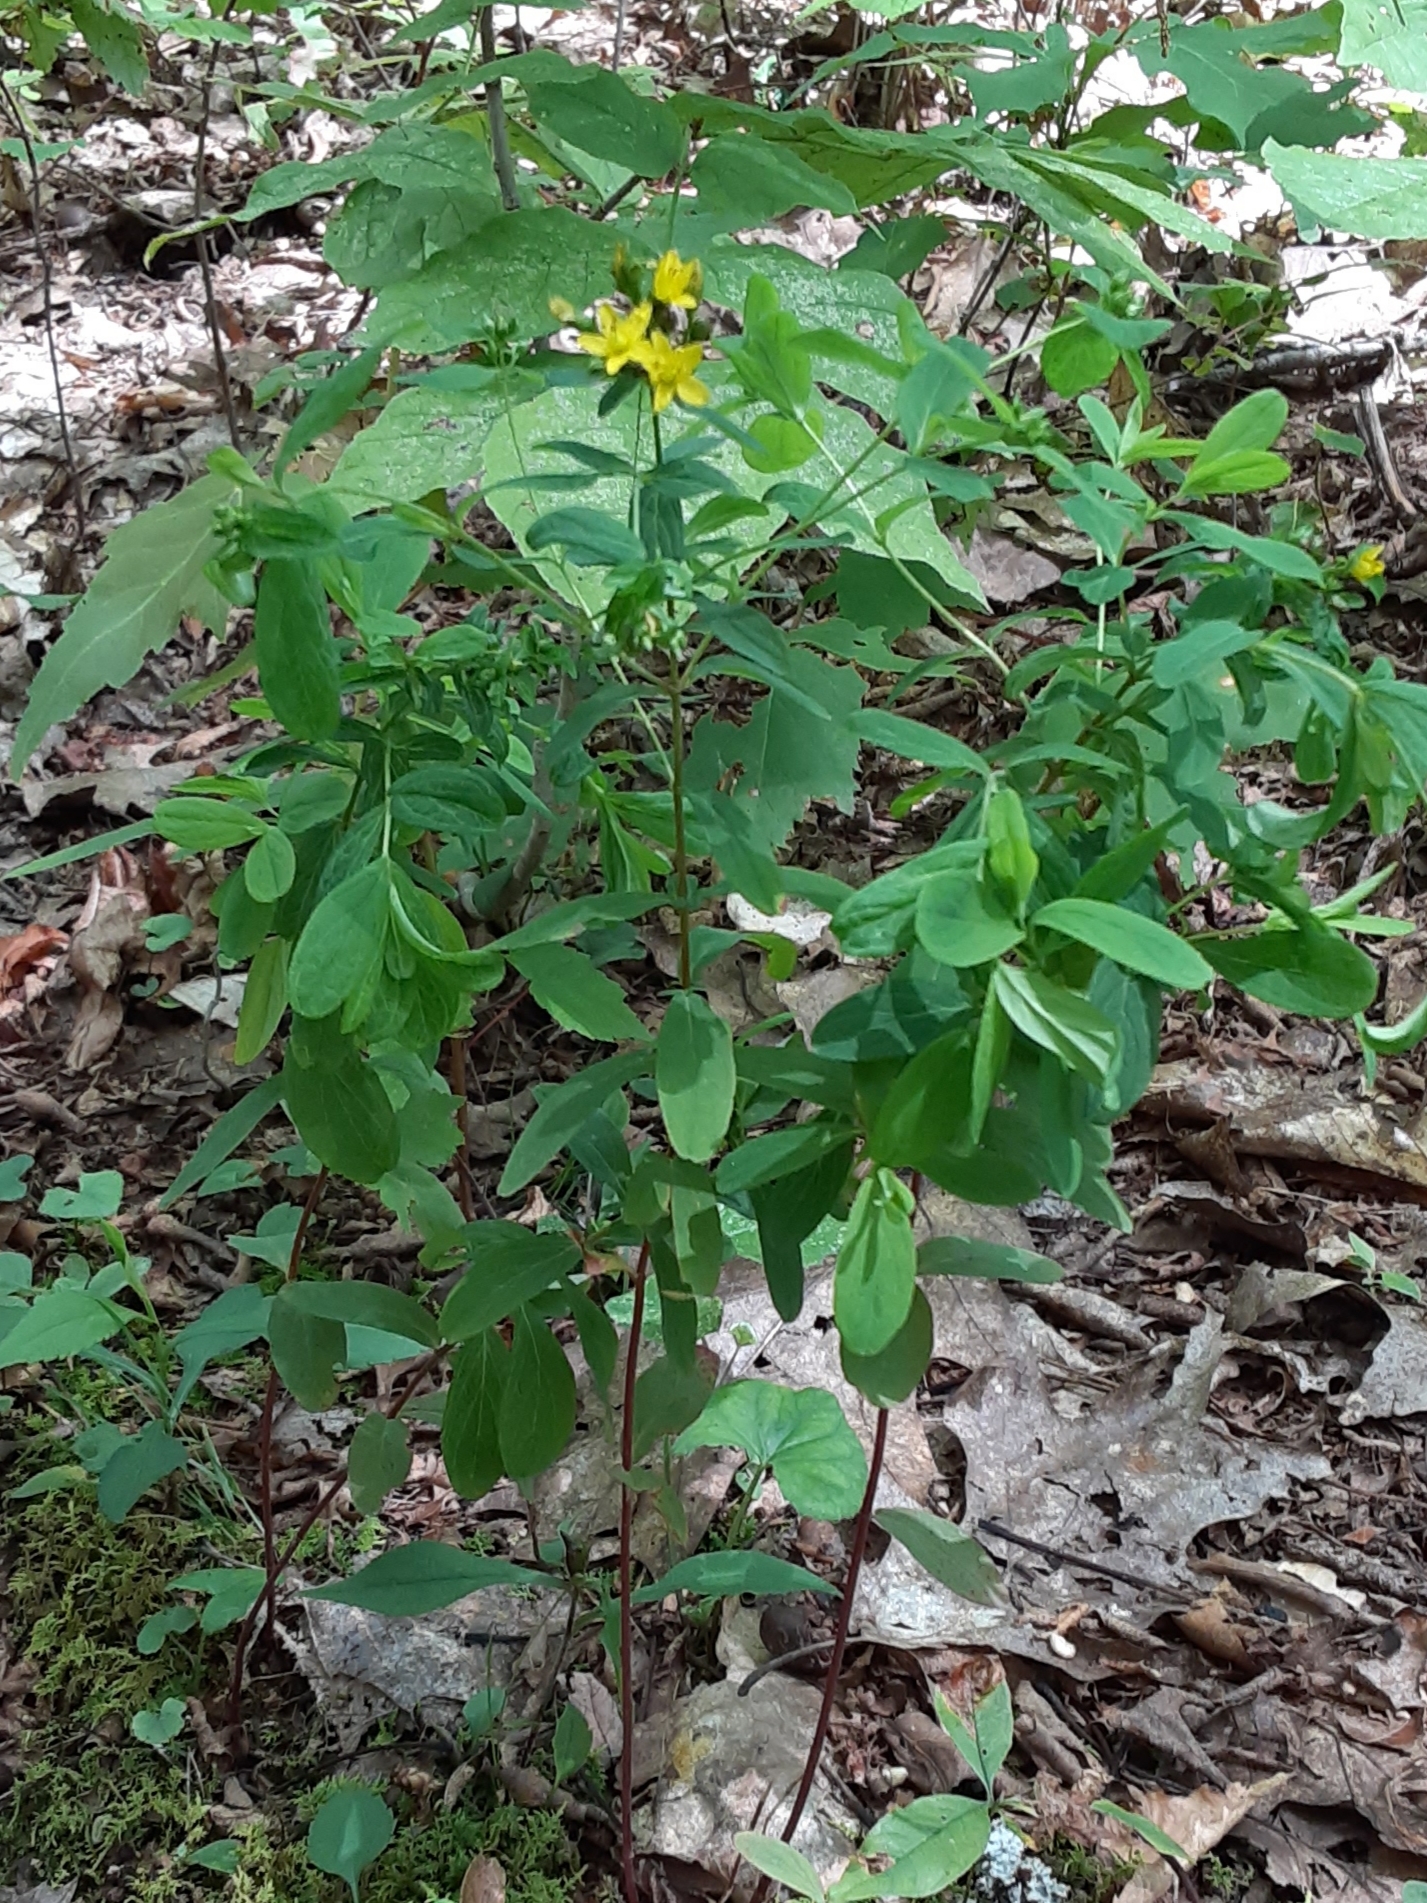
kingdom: Plantae
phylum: Tracheophyta
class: Magnoliopsida
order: Malpighiales
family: Hypericaceae
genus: Hypericum
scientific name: Hypericum punctatum
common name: Spotted st. john's-wort
